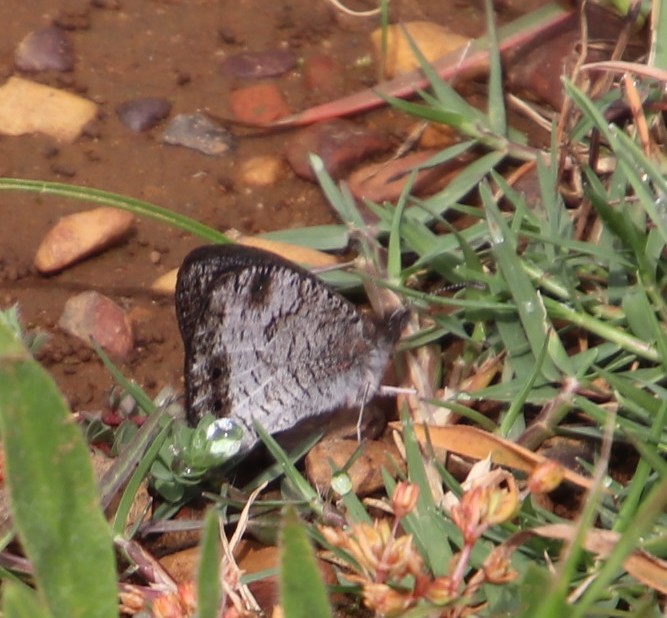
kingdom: Plantae
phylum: Tracheophyta
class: Magnoliopsida
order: Asterales
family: Asteraceae
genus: Senecio
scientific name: Senecio pubigerus
